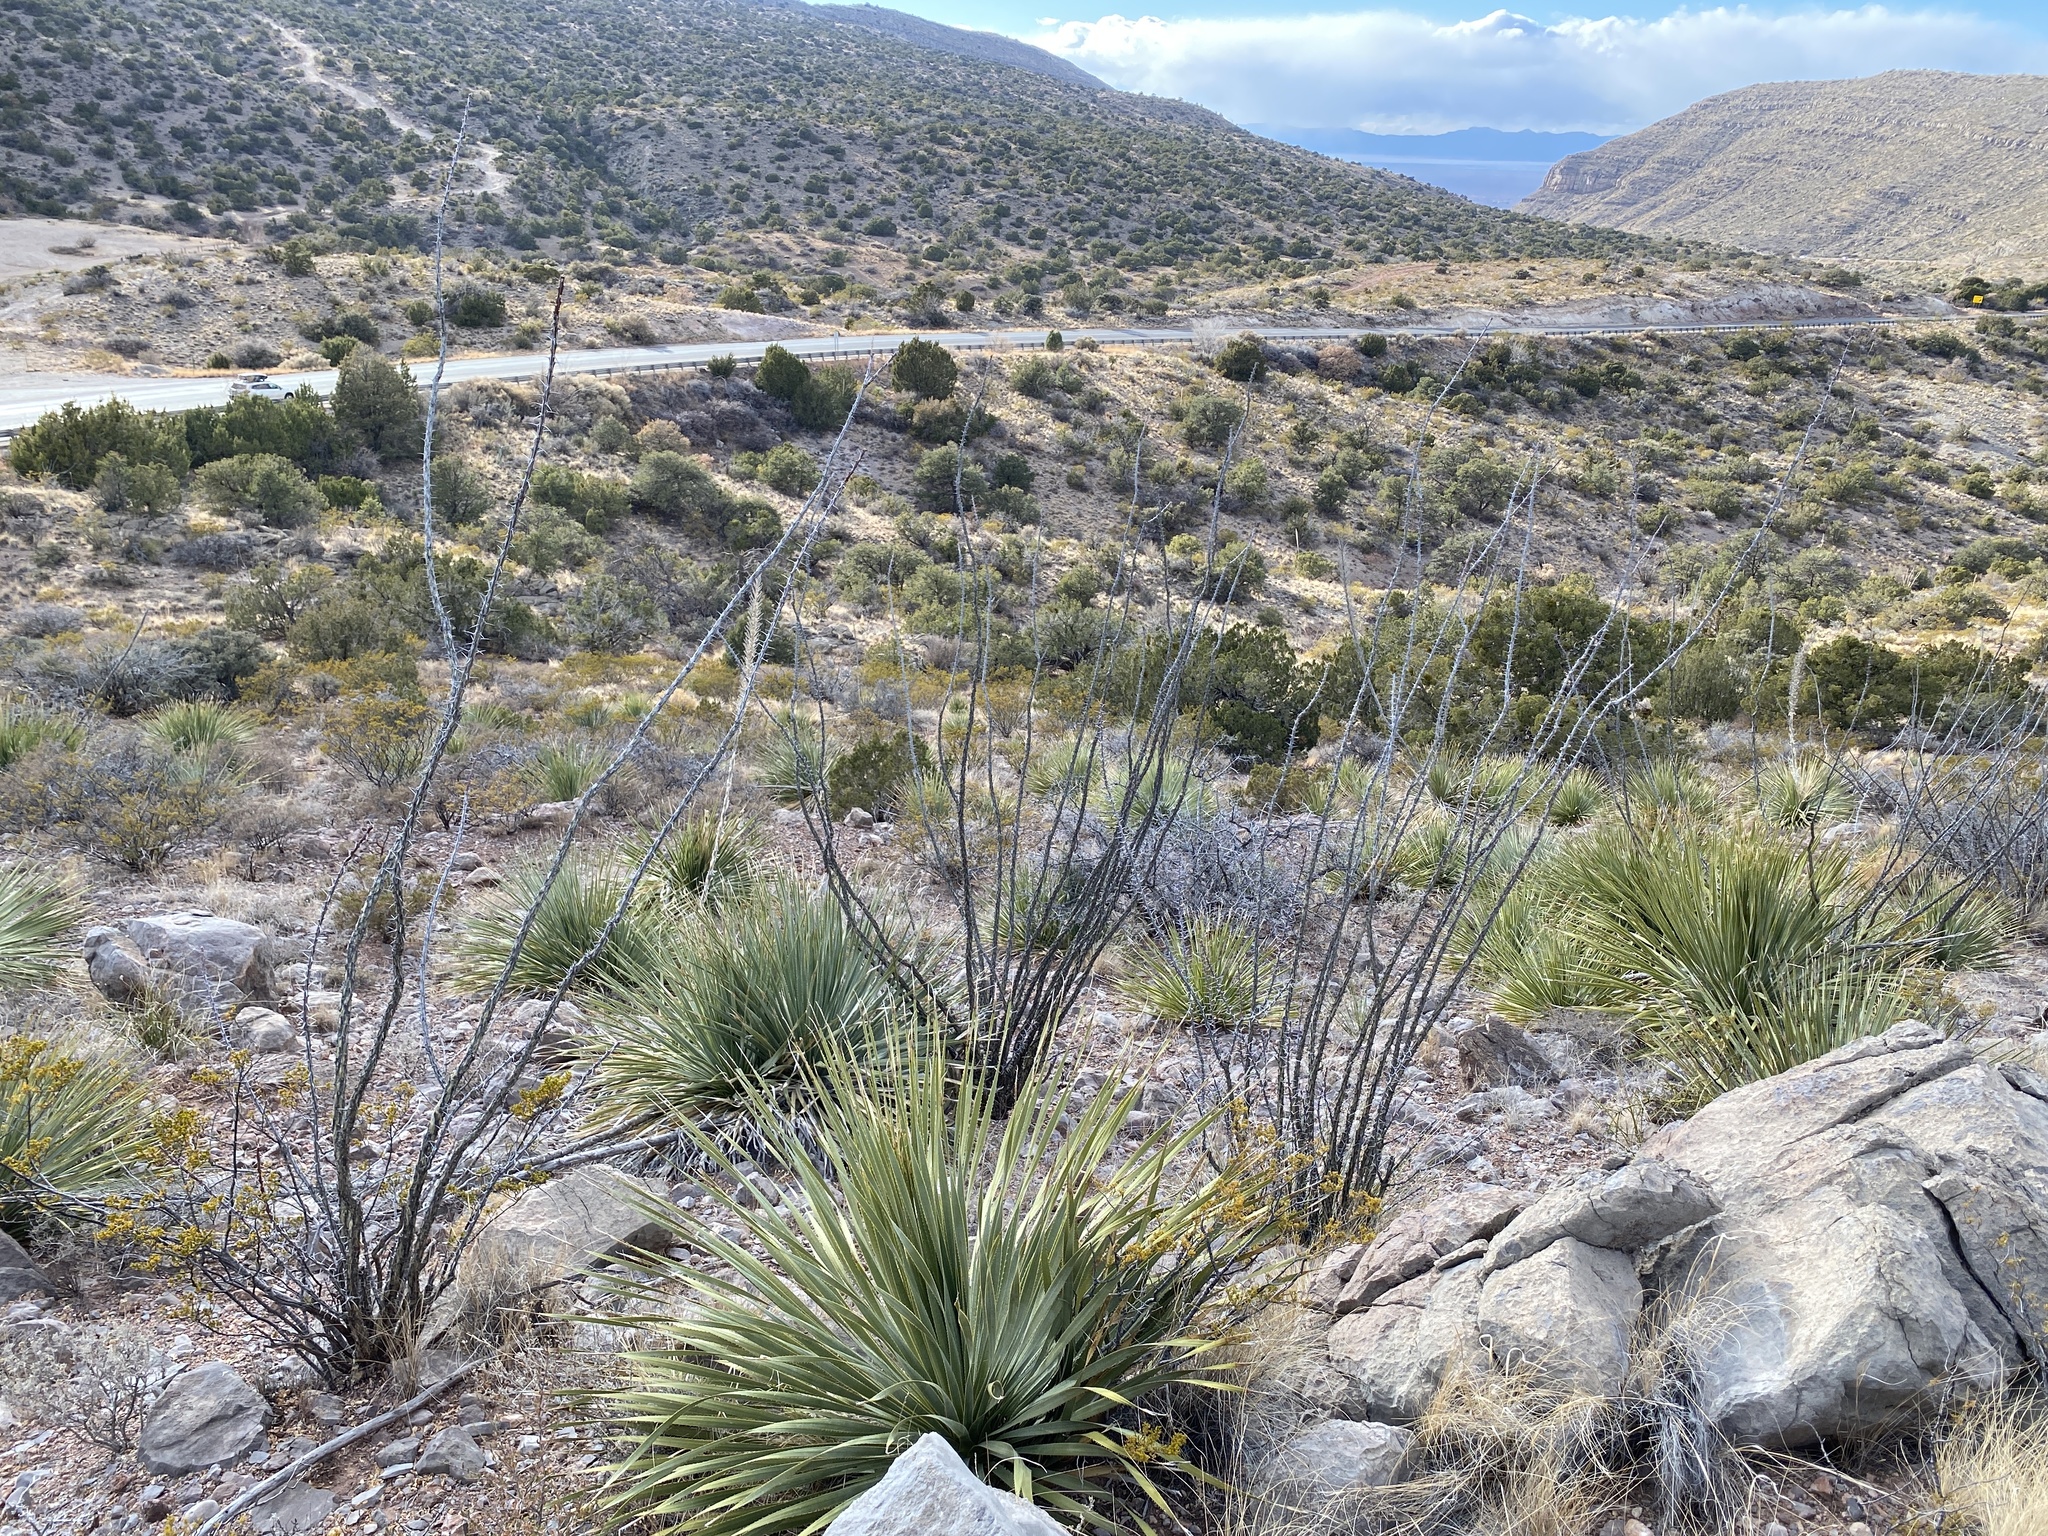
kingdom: Plantae
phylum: Tracheophyta
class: Magnoliopsida
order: Ericales
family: Fouquieriaceae
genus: Fouquieria
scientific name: Fouquieria splendens
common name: Vine-cactus
